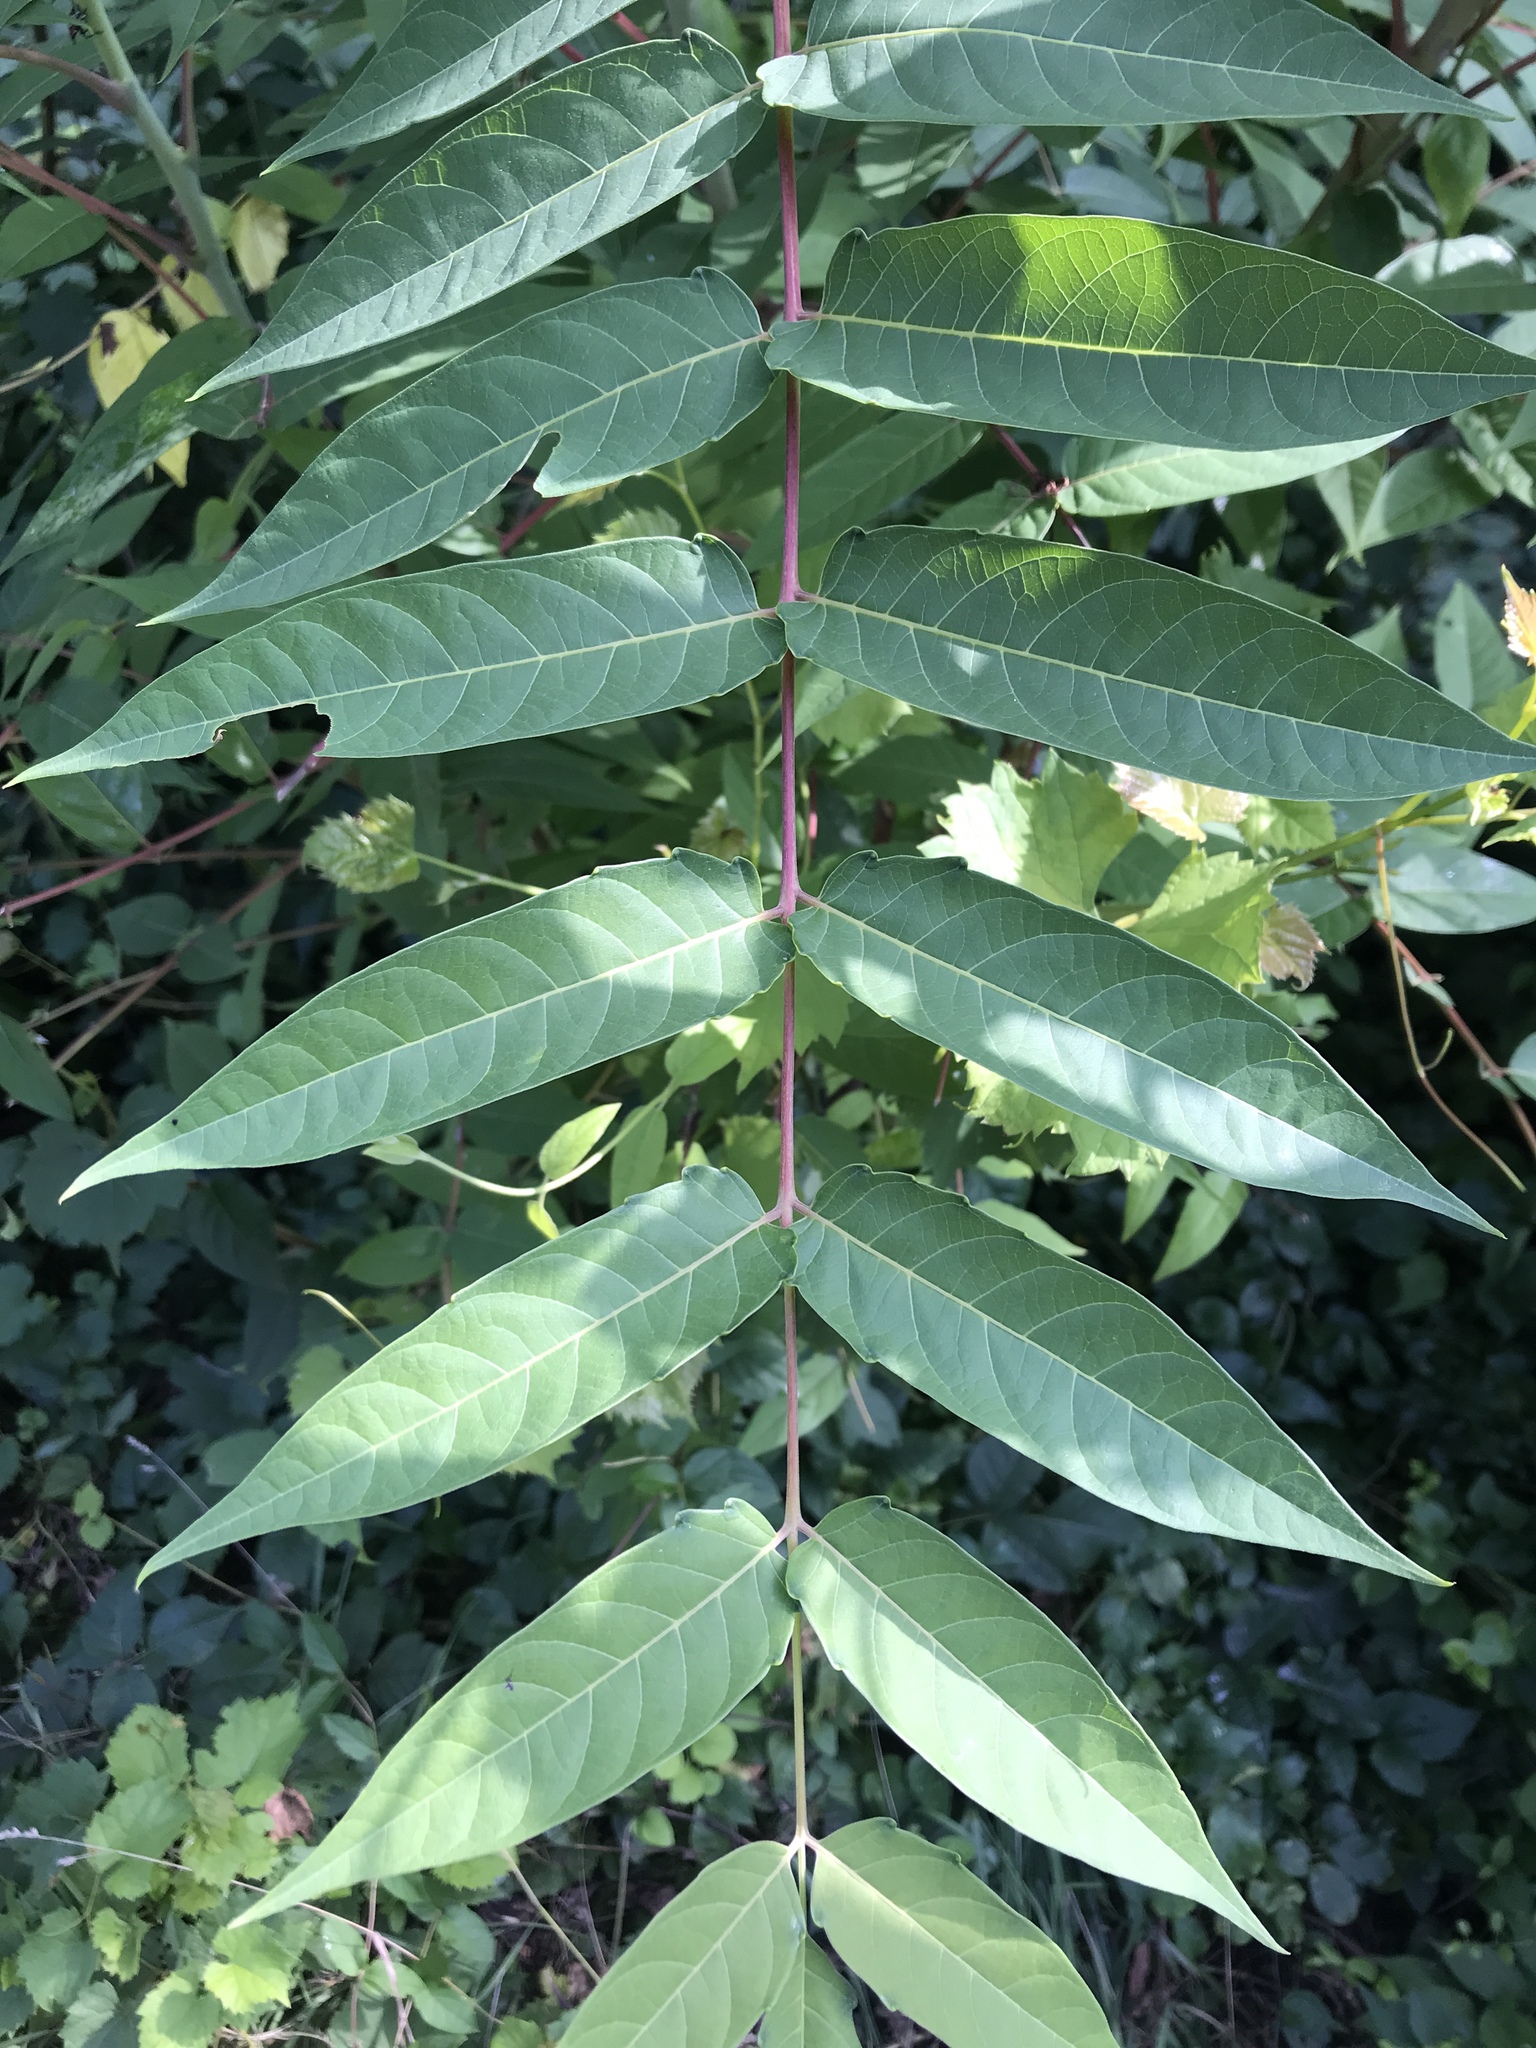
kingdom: Plantae
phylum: Tracheophyta
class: Magnoliopsida
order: Sapindales
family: Simaroubaceae
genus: Ailanthus
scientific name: Ailanthus altissima
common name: Tree-of-heaven
